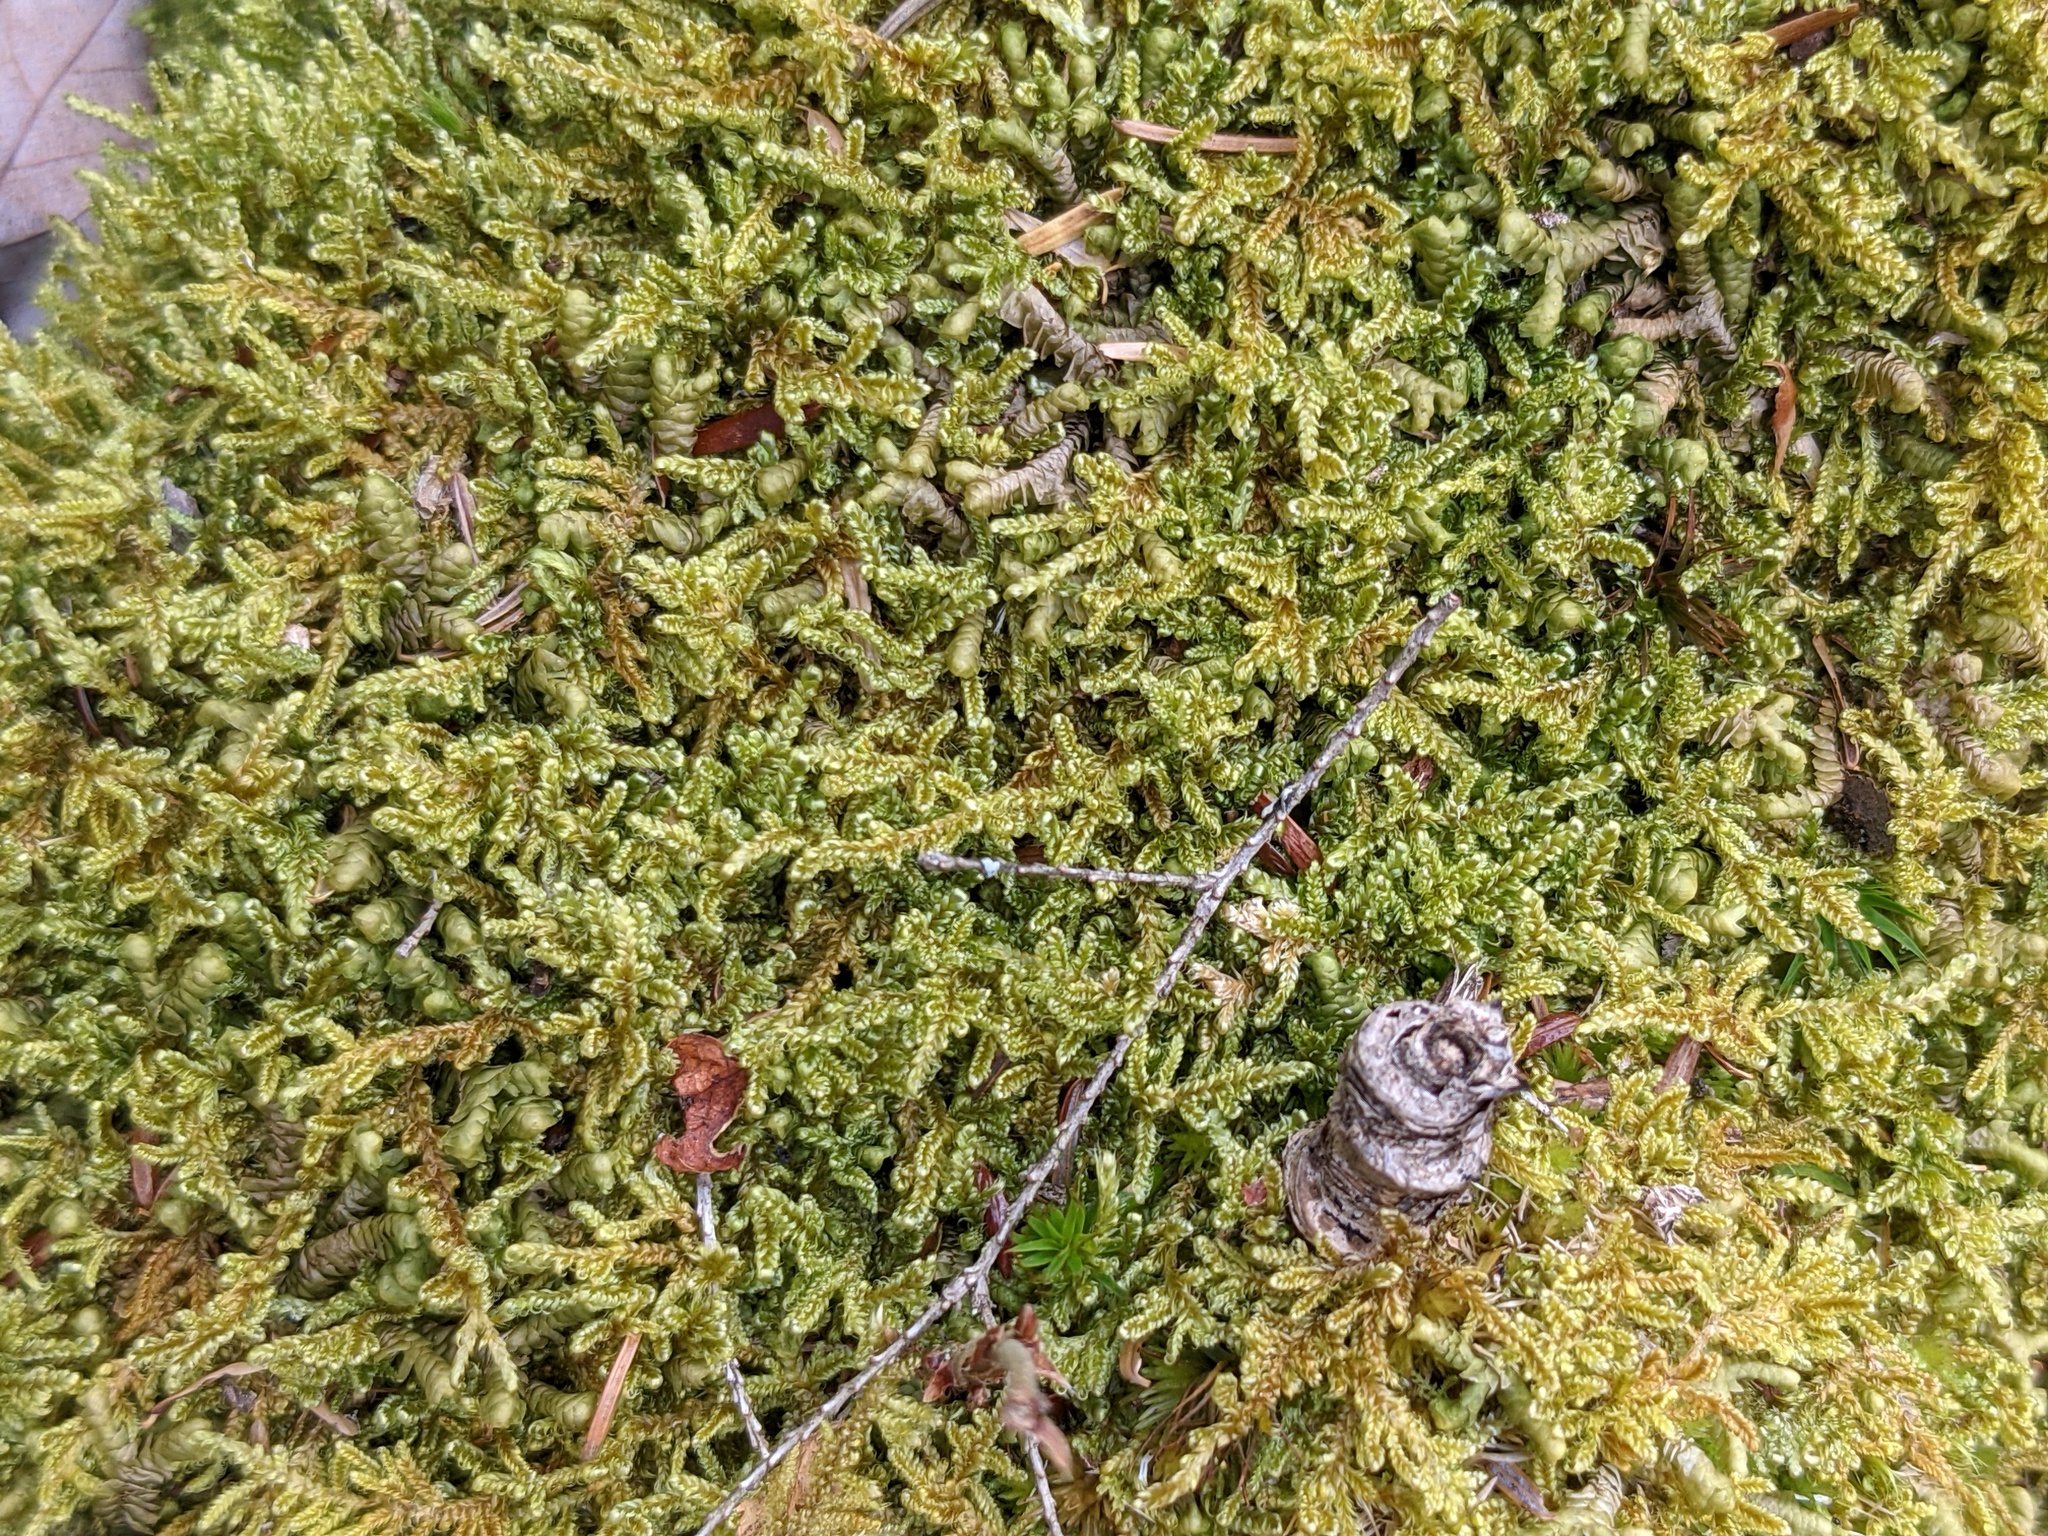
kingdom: Plantae
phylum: Tracheophyta
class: Magnoliopsida
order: Apiales
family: Araliaceae
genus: Aralia
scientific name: Aralia nudicaulis
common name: Wild sarsaparilla
